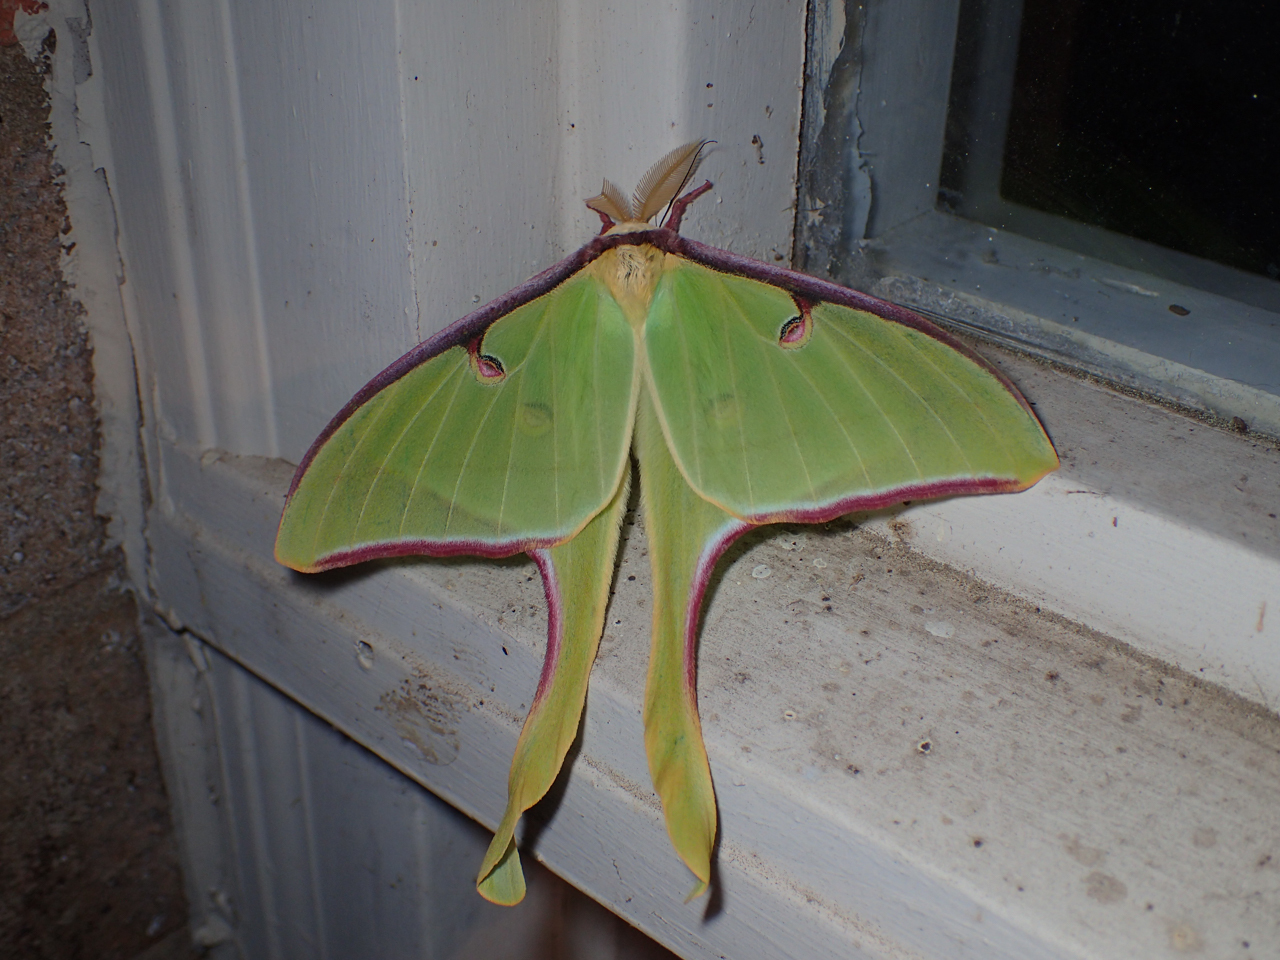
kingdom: Animalia
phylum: Arthropoda
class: Insecta
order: Lepidoptera
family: Saturniidae
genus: Actias
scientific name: Actias luna
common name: Luna moth
